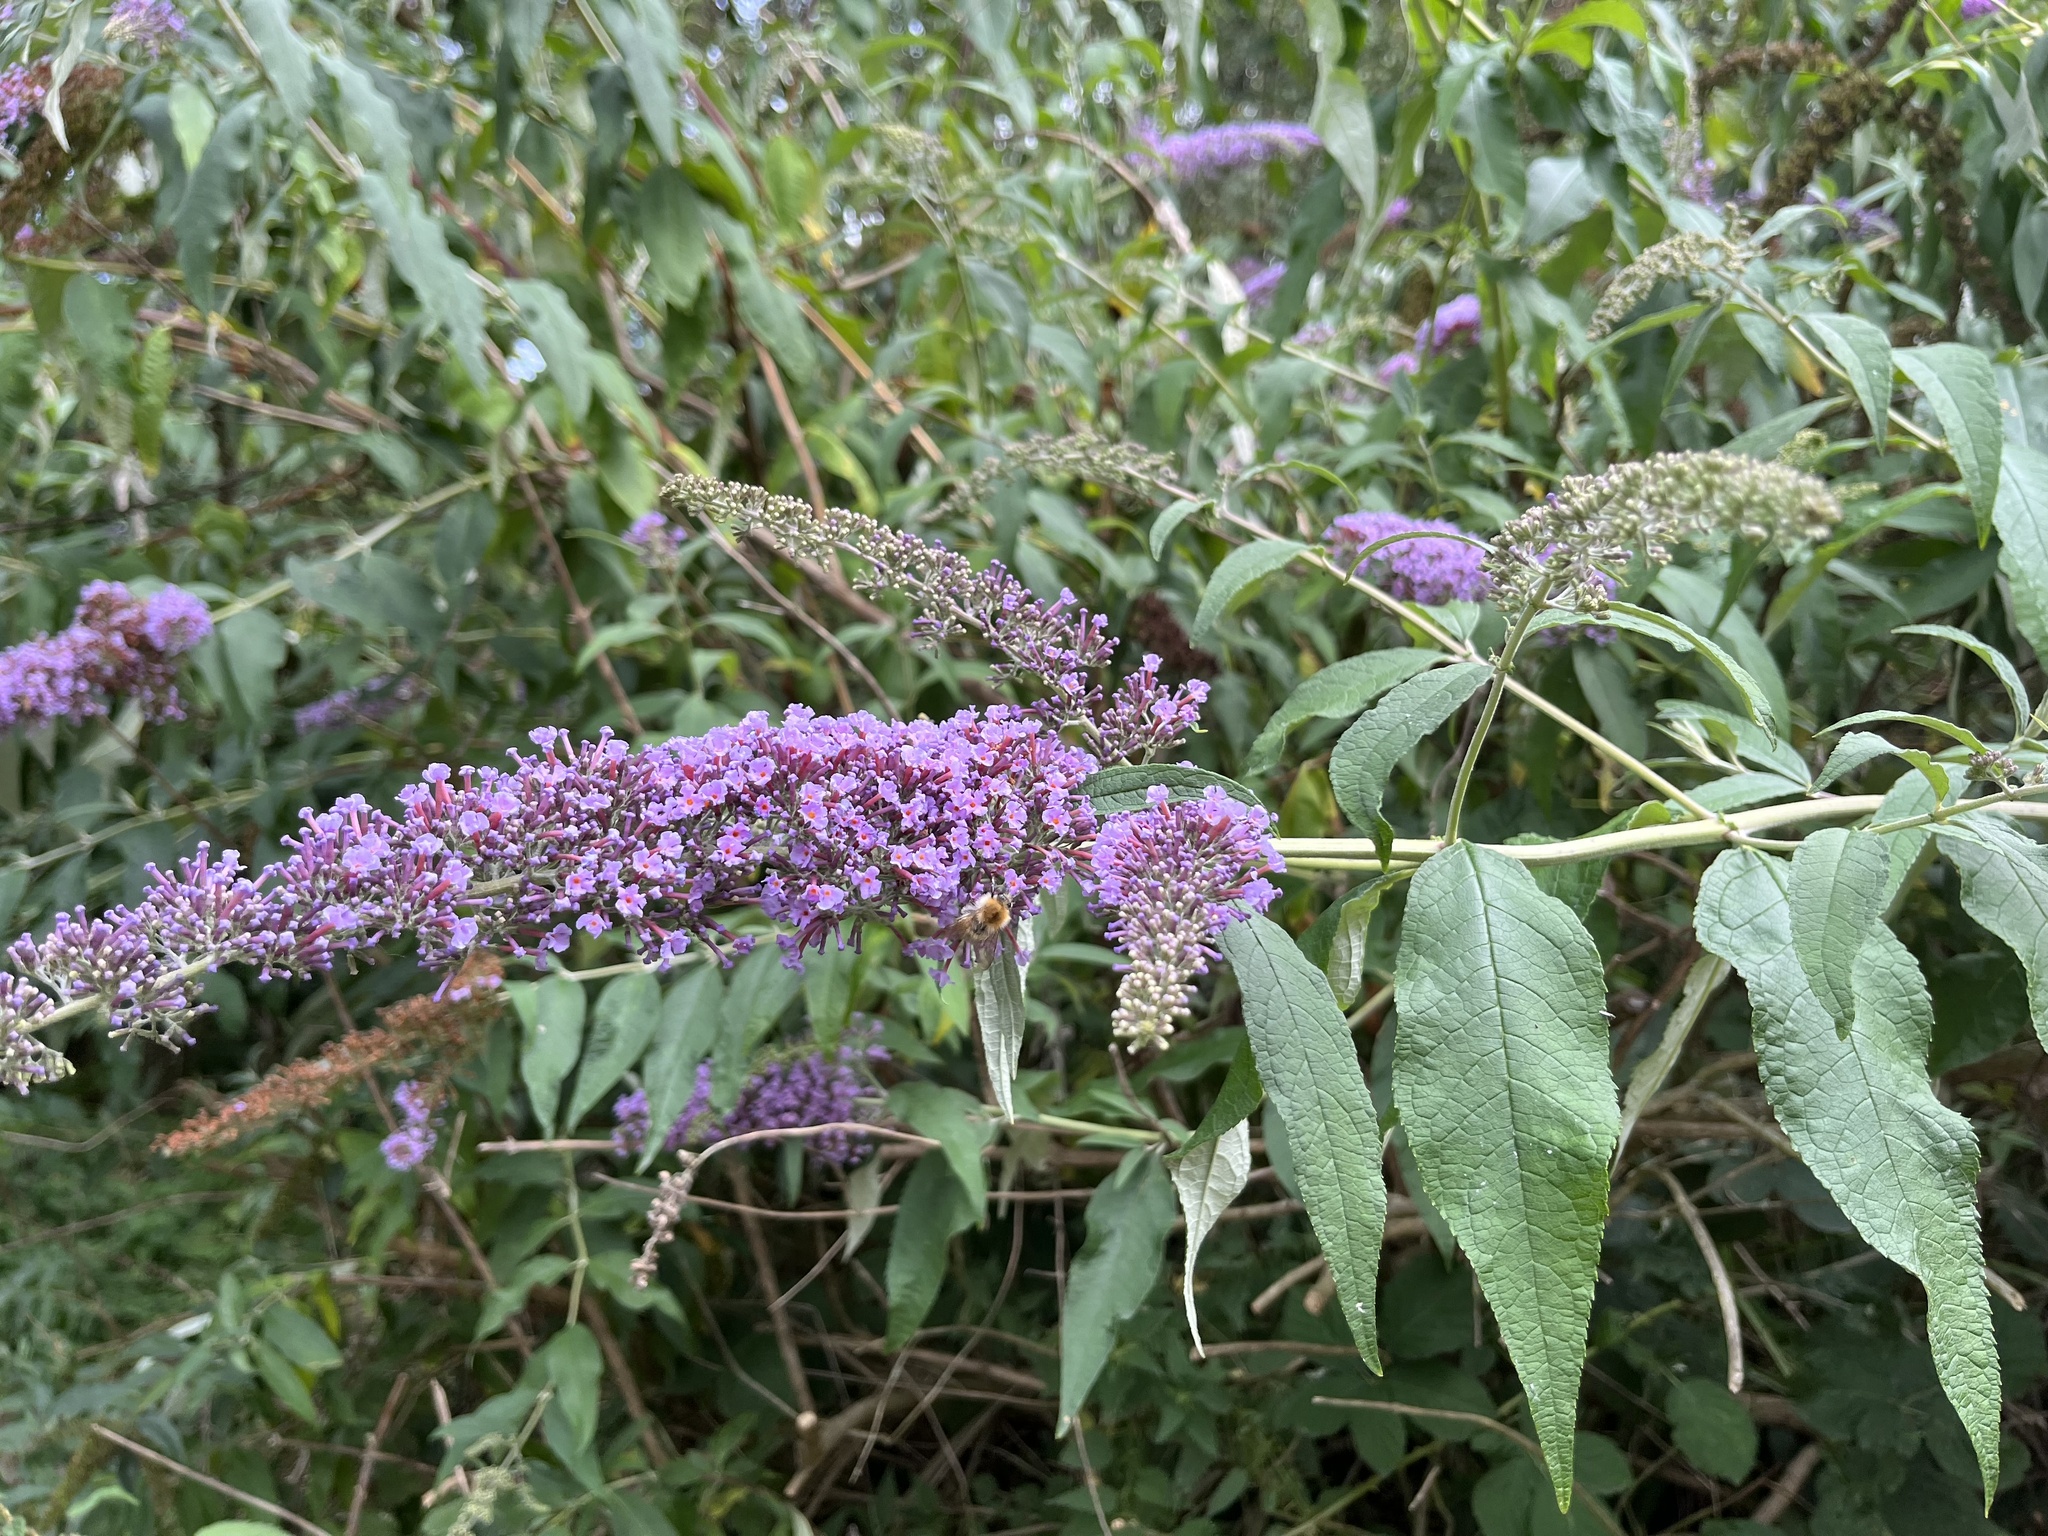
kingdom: Plantae
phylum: Tracheophyta
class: Magnoliopsida
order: Lamiales
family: Lamiaceae
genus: Glechoma
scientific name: Glechoma hederacea
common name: Ground ivy
